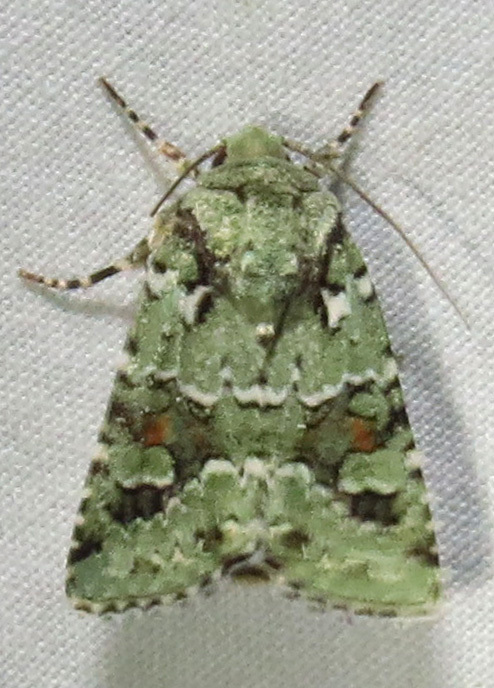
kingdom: Animalia
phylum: Arthropoda
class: Insecta
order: Lepidoptera
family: Noctuidae
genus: Lacinipolia
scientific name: Lacinipolia laudabilis
